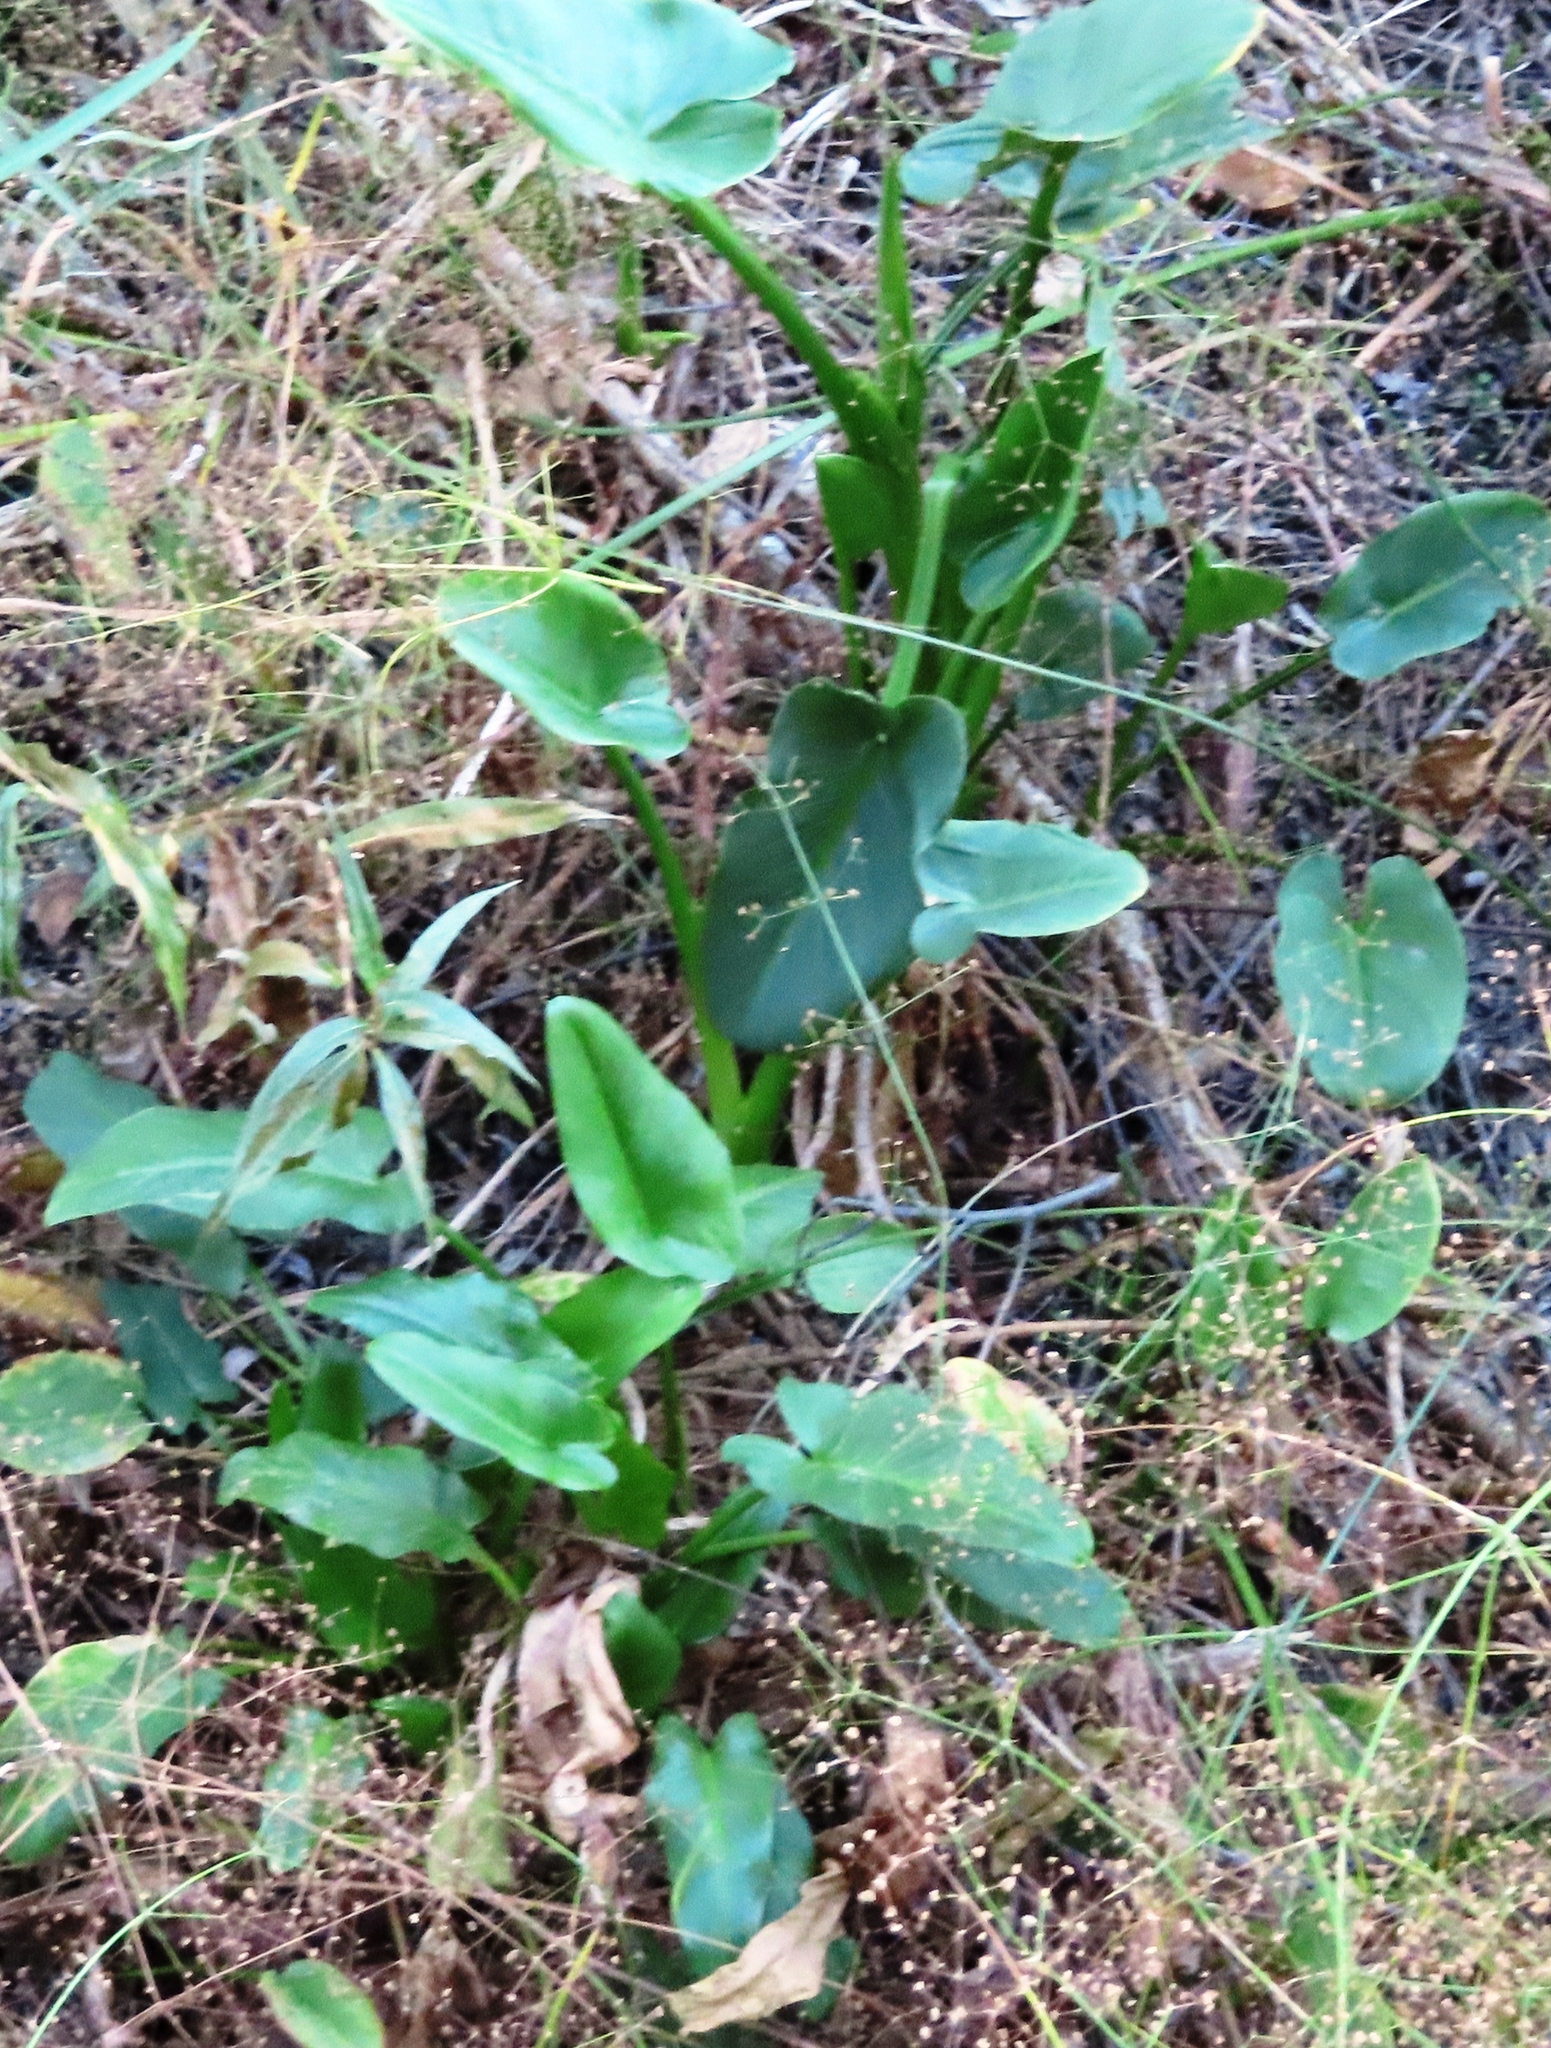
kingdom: Plantae
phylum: Tracheophyta
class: Liliopsida
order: Alismatales
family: Araceae
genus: Zantedeschia
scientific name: Zantedeschia aethiopica
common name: Altar-lily
